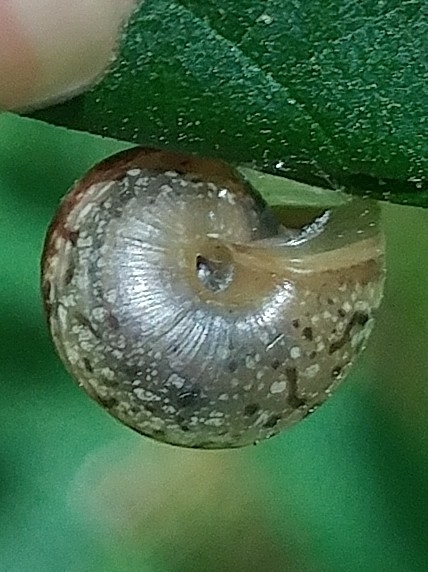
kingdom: Animalia
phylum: Mollusca
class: Gastropoda
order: Stylommatophora
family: Haplotrematidae
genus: Ancotrema
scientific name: Ancotrema sportella
